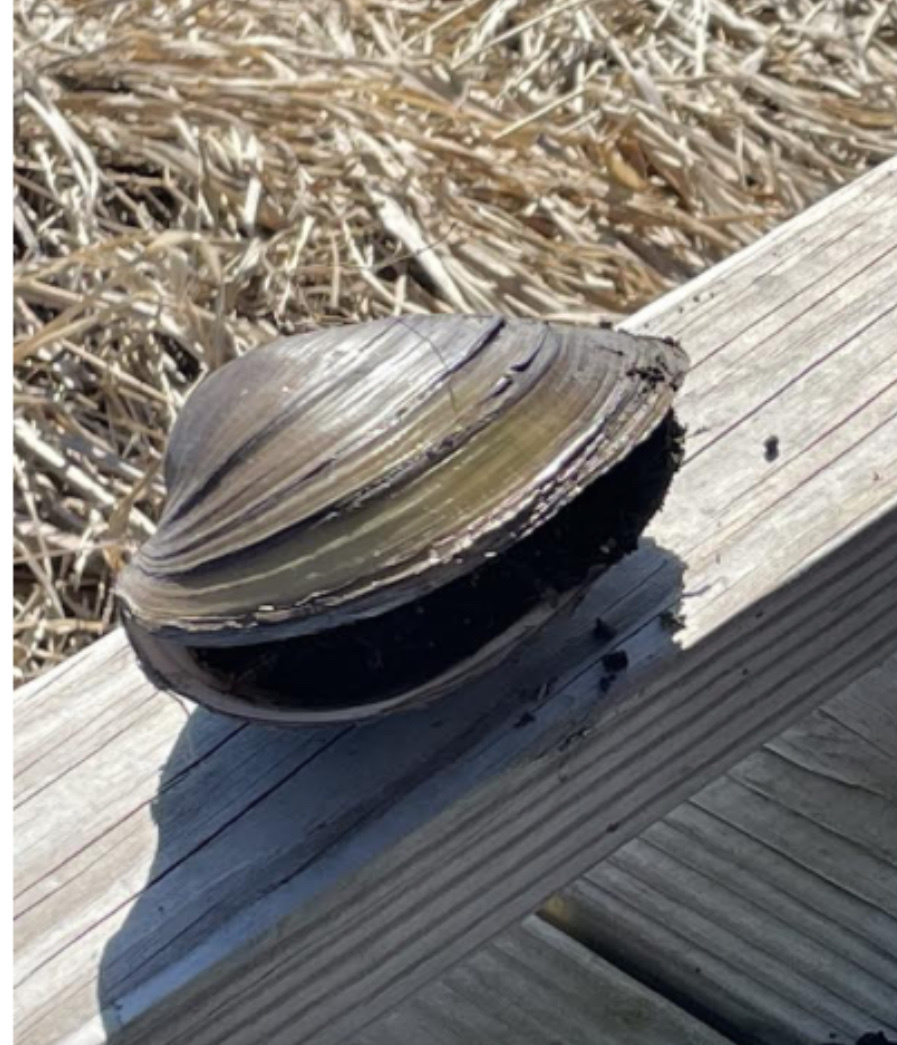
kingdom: Animalia
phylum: Mollusca
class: Bivalvia
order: Unionida
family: Unionidae
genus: Pyganodon
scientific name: Pyganodon grandis
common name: Giant floater
